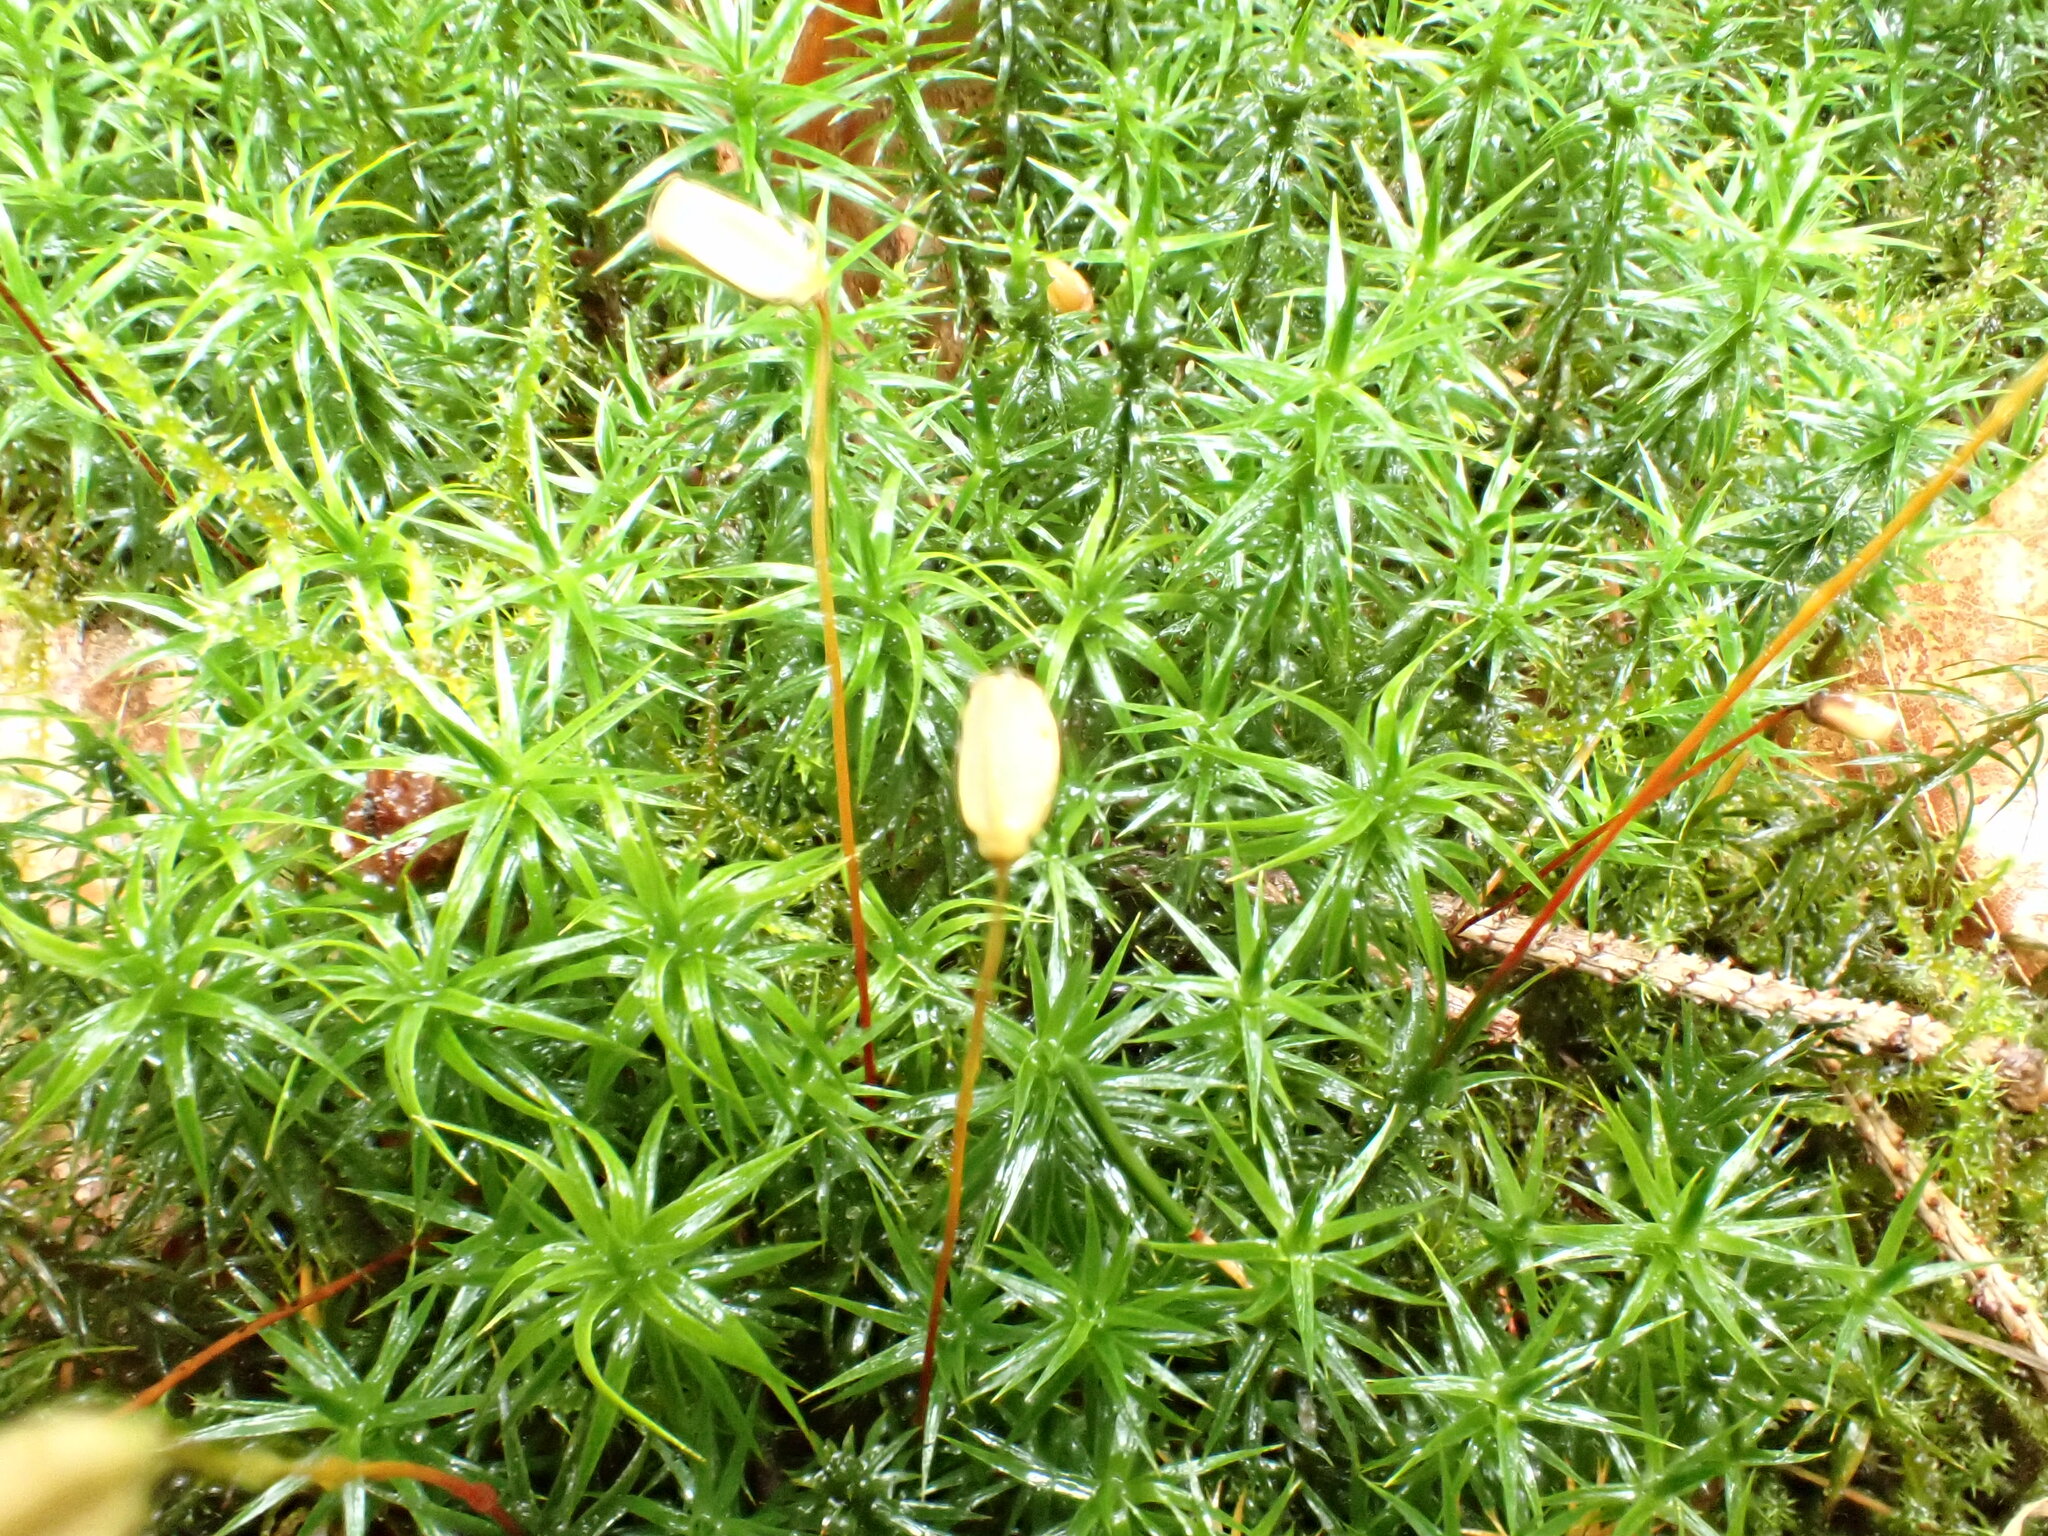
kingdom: Plantae
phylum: Bryophyta
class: Polytrichopsida
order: Polytrichales
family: Polytrichaceae
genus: Polytrichum
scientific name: Polytrichum formosum
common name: Bank haircap moss
